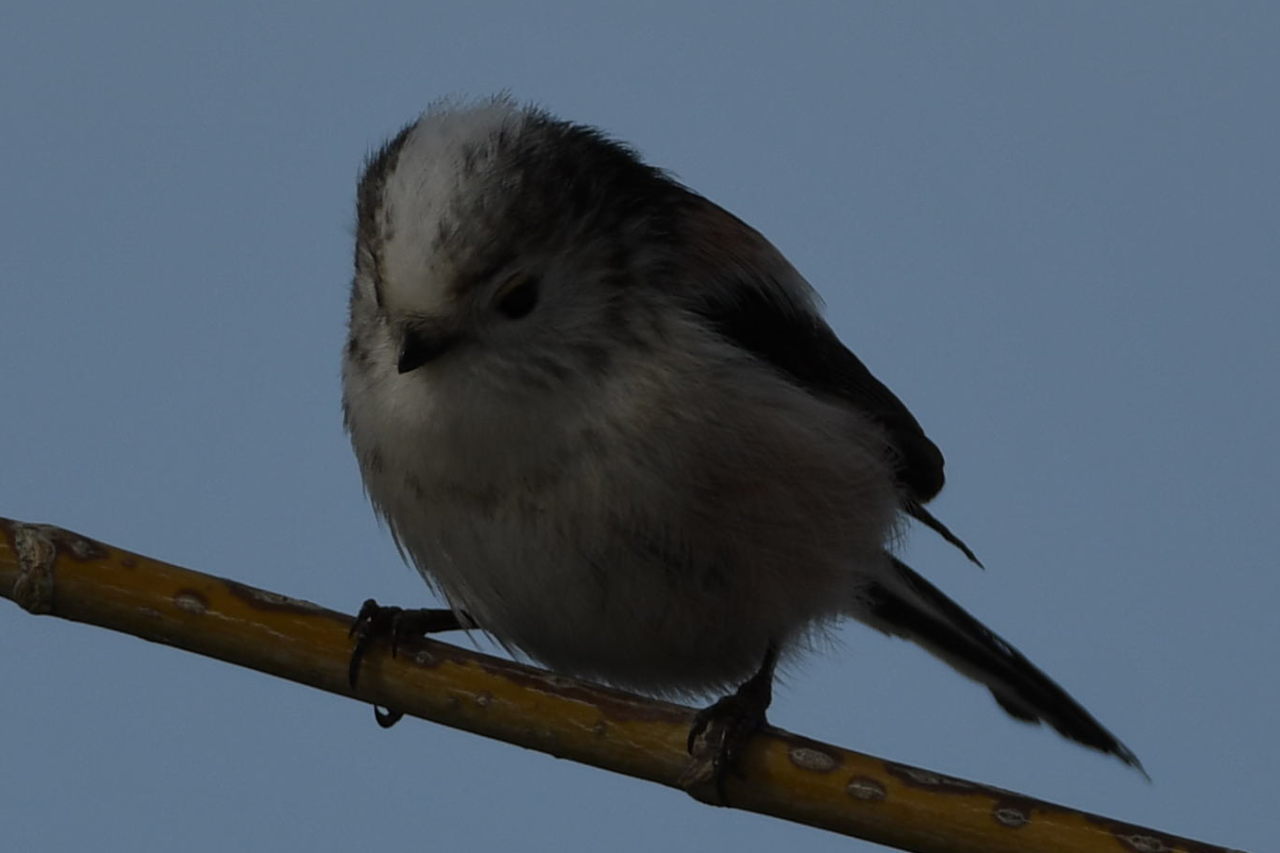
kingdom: Animalia
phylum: Chordata
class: Aves
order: Passeriformes
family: Aegithalidae
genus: Aegithalos
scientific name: Aegithalos caudatus
